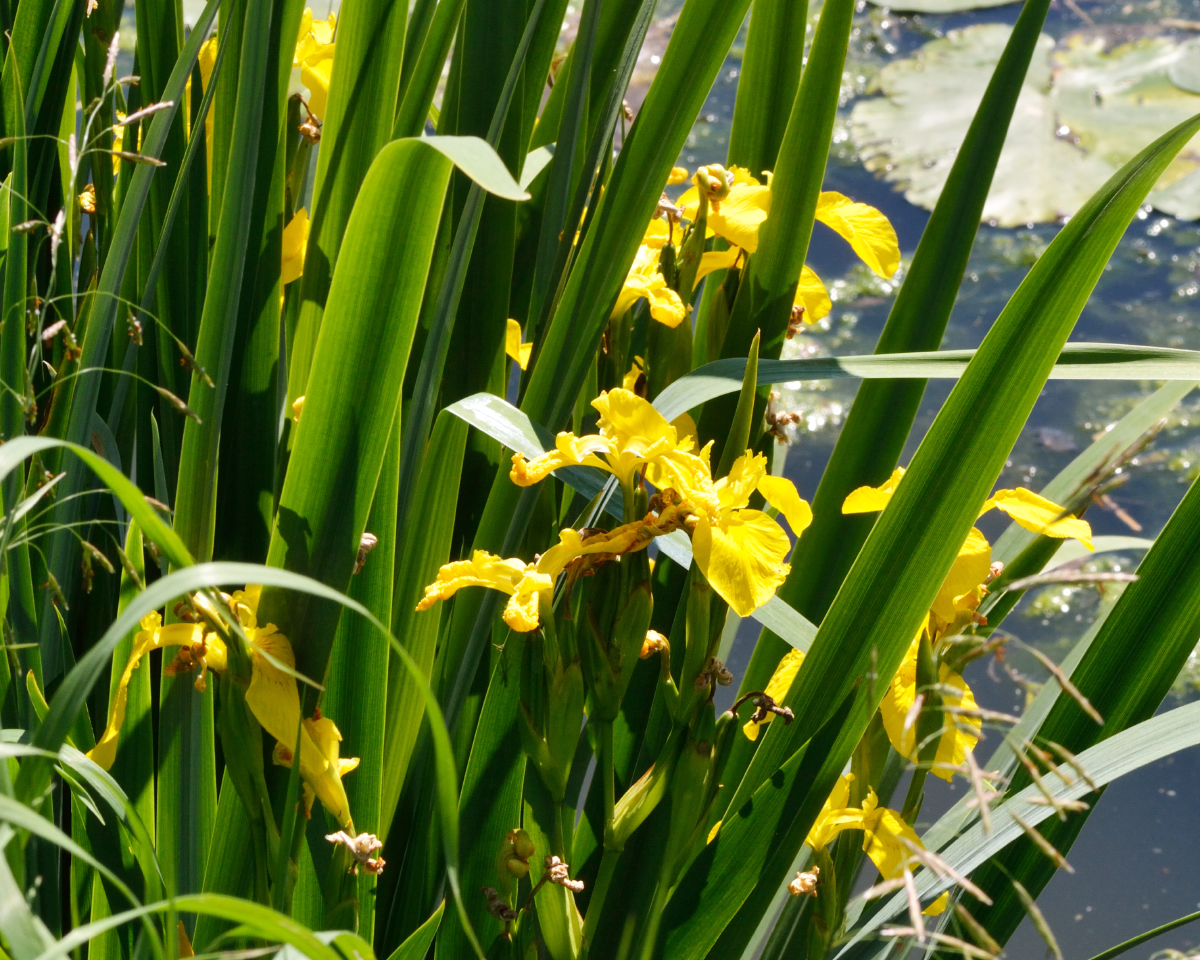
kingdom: Plantae
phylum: Tracheophyta
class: Liliopsida
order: Asparagales
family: Iridaceae
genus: Iris
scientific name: Iris pseudacorus
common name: Yellow flag
